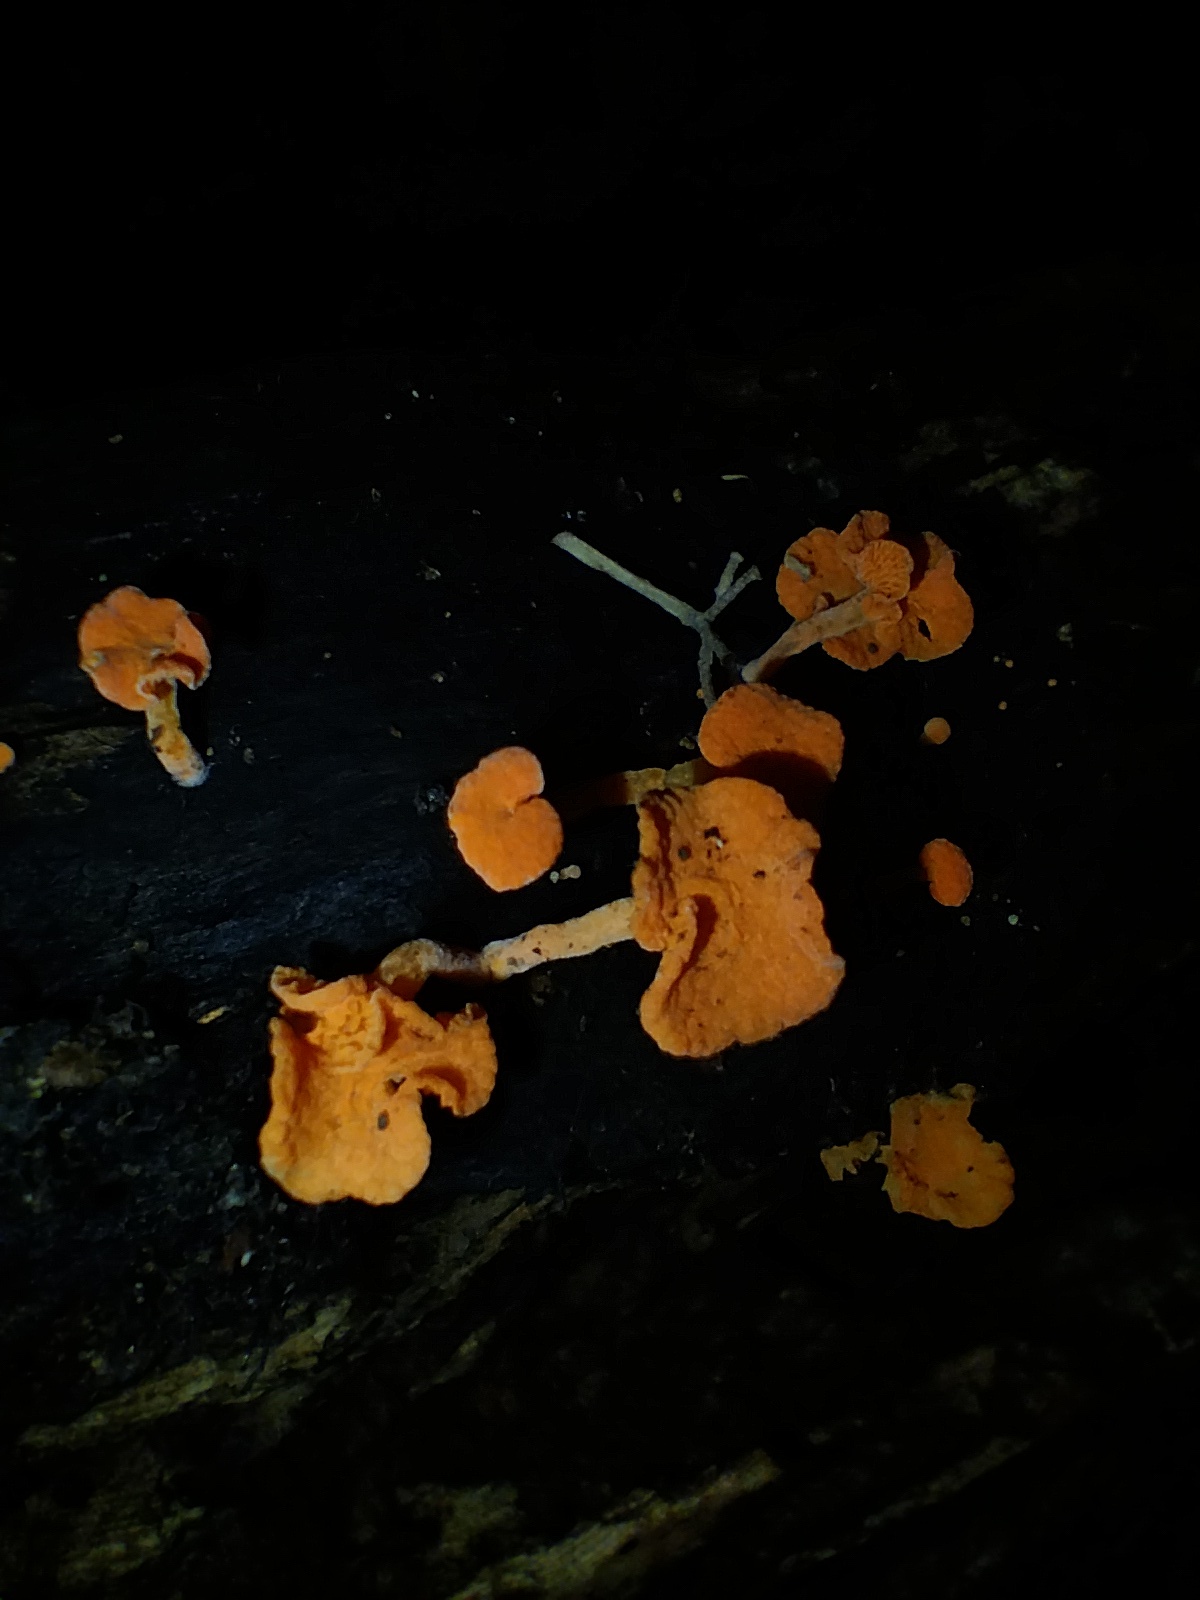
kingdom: Fungi
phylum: Basidiomycota
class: Agaricomycetes
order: Agaricales
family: Mycenaceae
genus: Favolaschia
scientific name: Favolaschia claudopus
